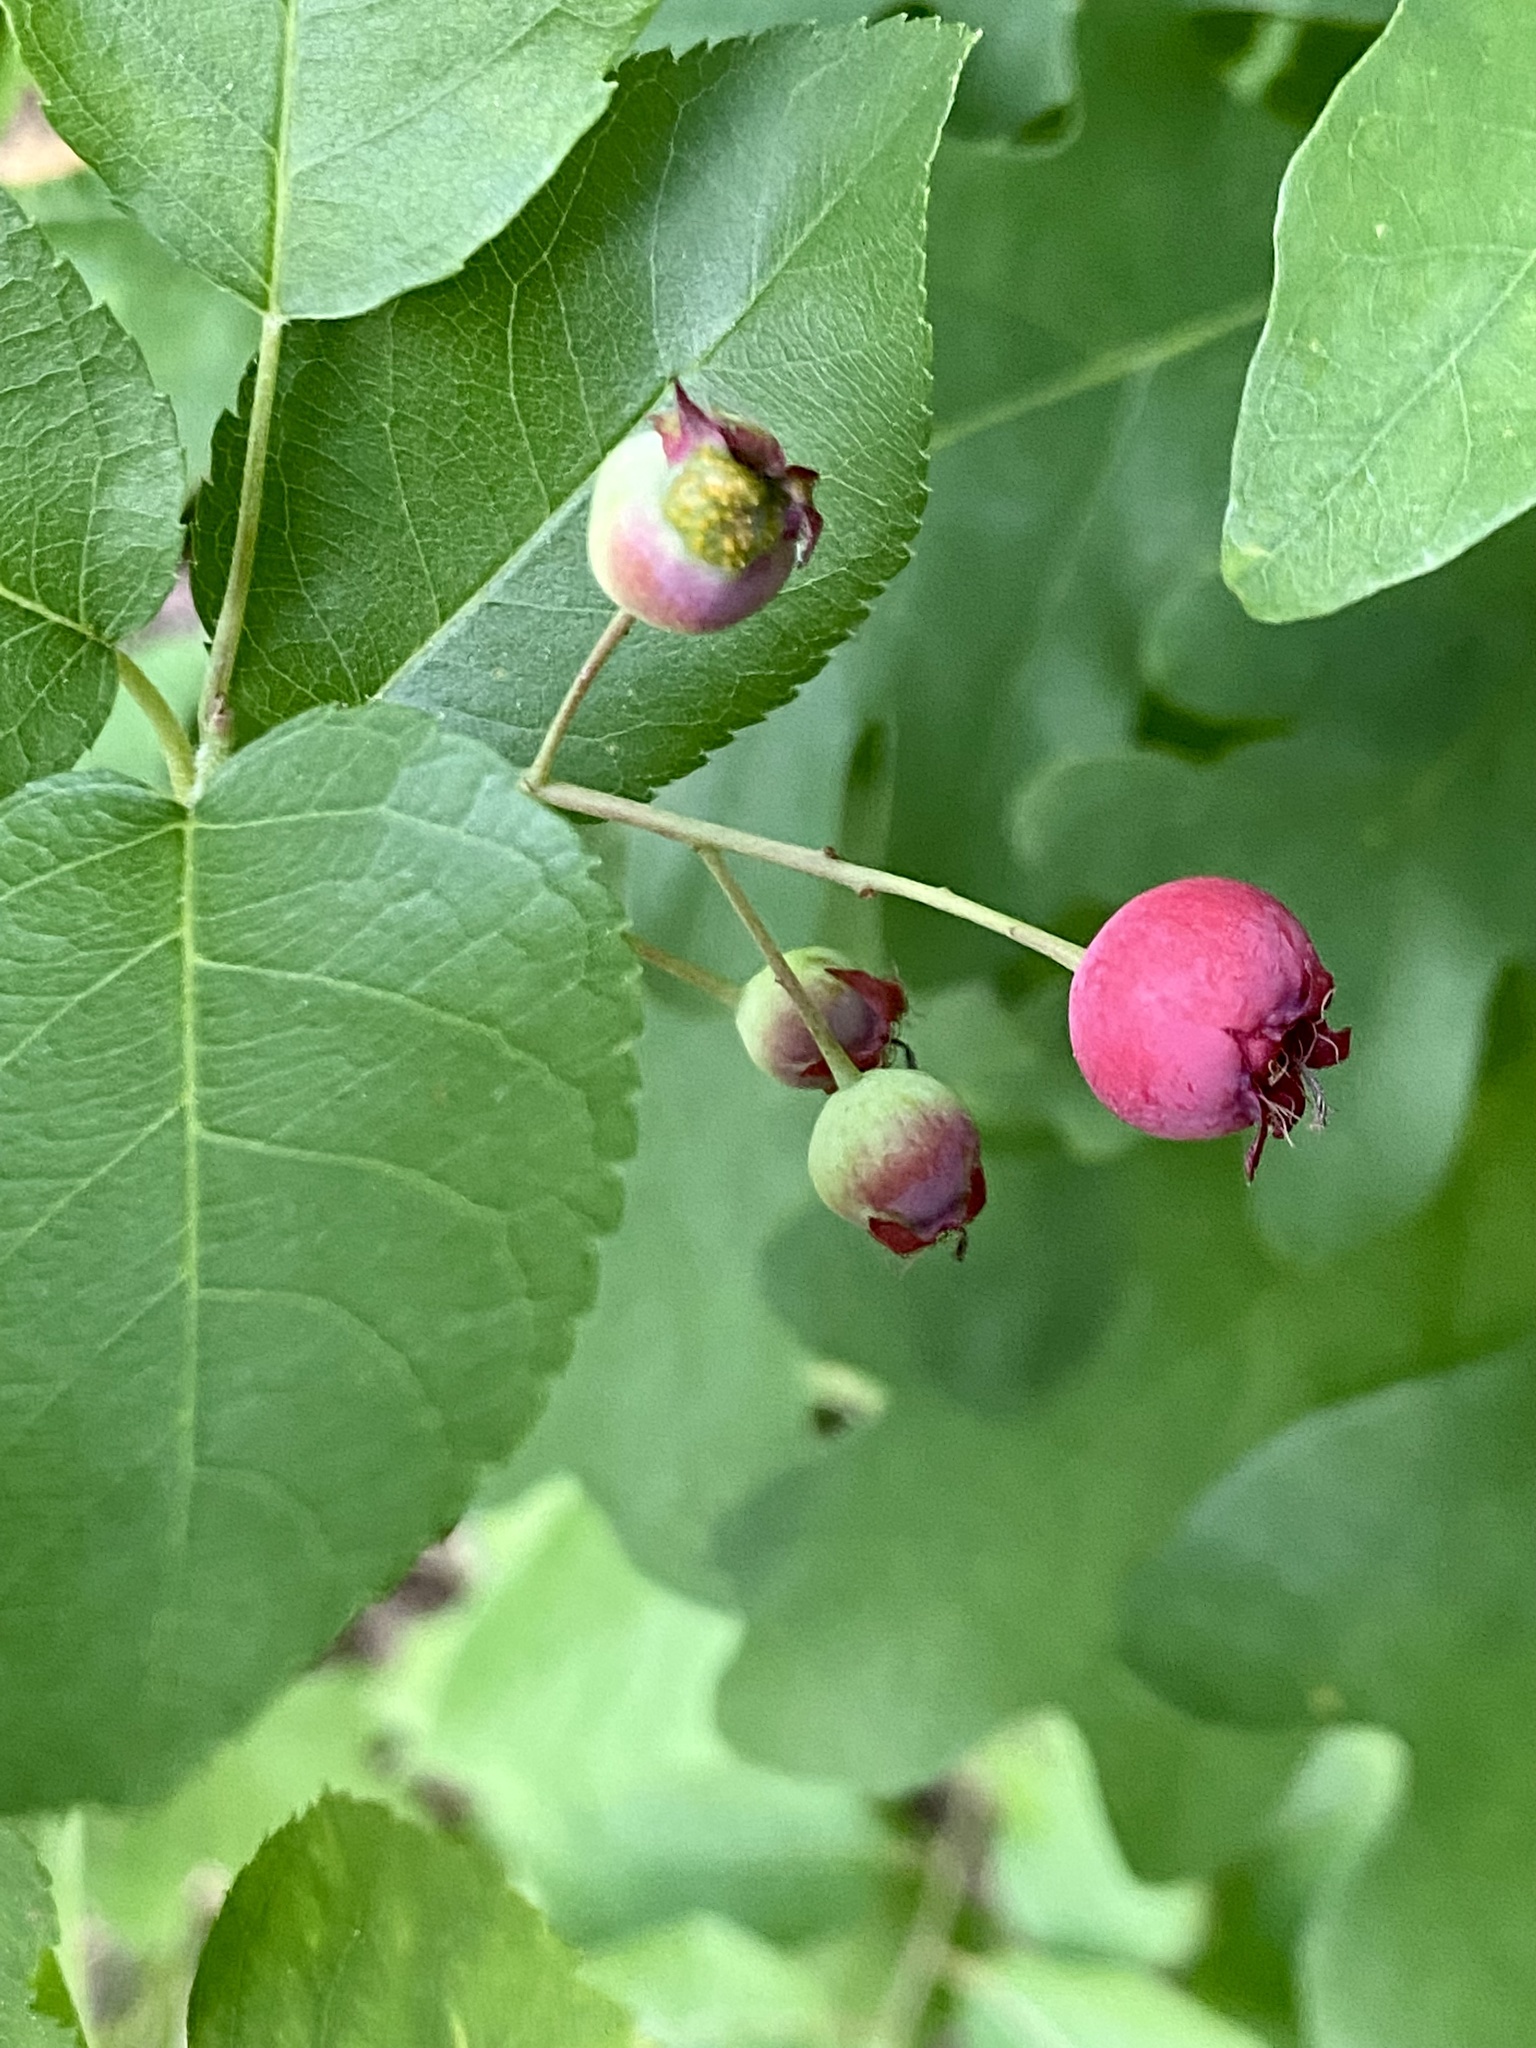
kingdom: Plantae
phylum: Tracheophyta
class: Magnoliopsida
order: Rosales
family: Rosaceae
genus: Amelanchier
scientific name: Amelanchier arborea
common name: Downy serviceberry
